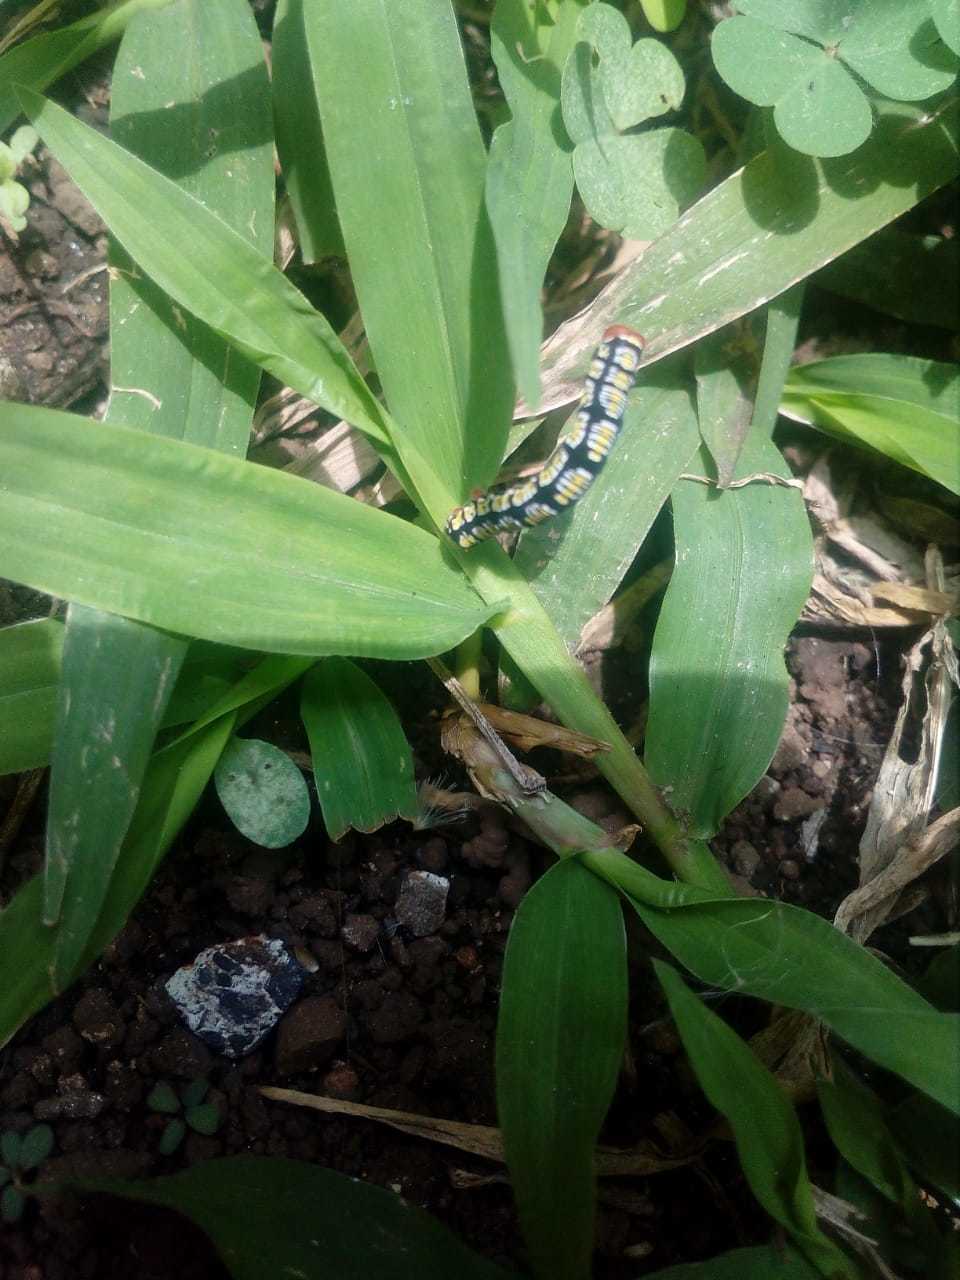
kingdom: Animalia
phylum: Arthropoda
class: Insecta
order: Lepidoptera
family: Geometridae
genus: Melanchroia
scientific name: Melanchroia chephise
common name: White-tipped black
